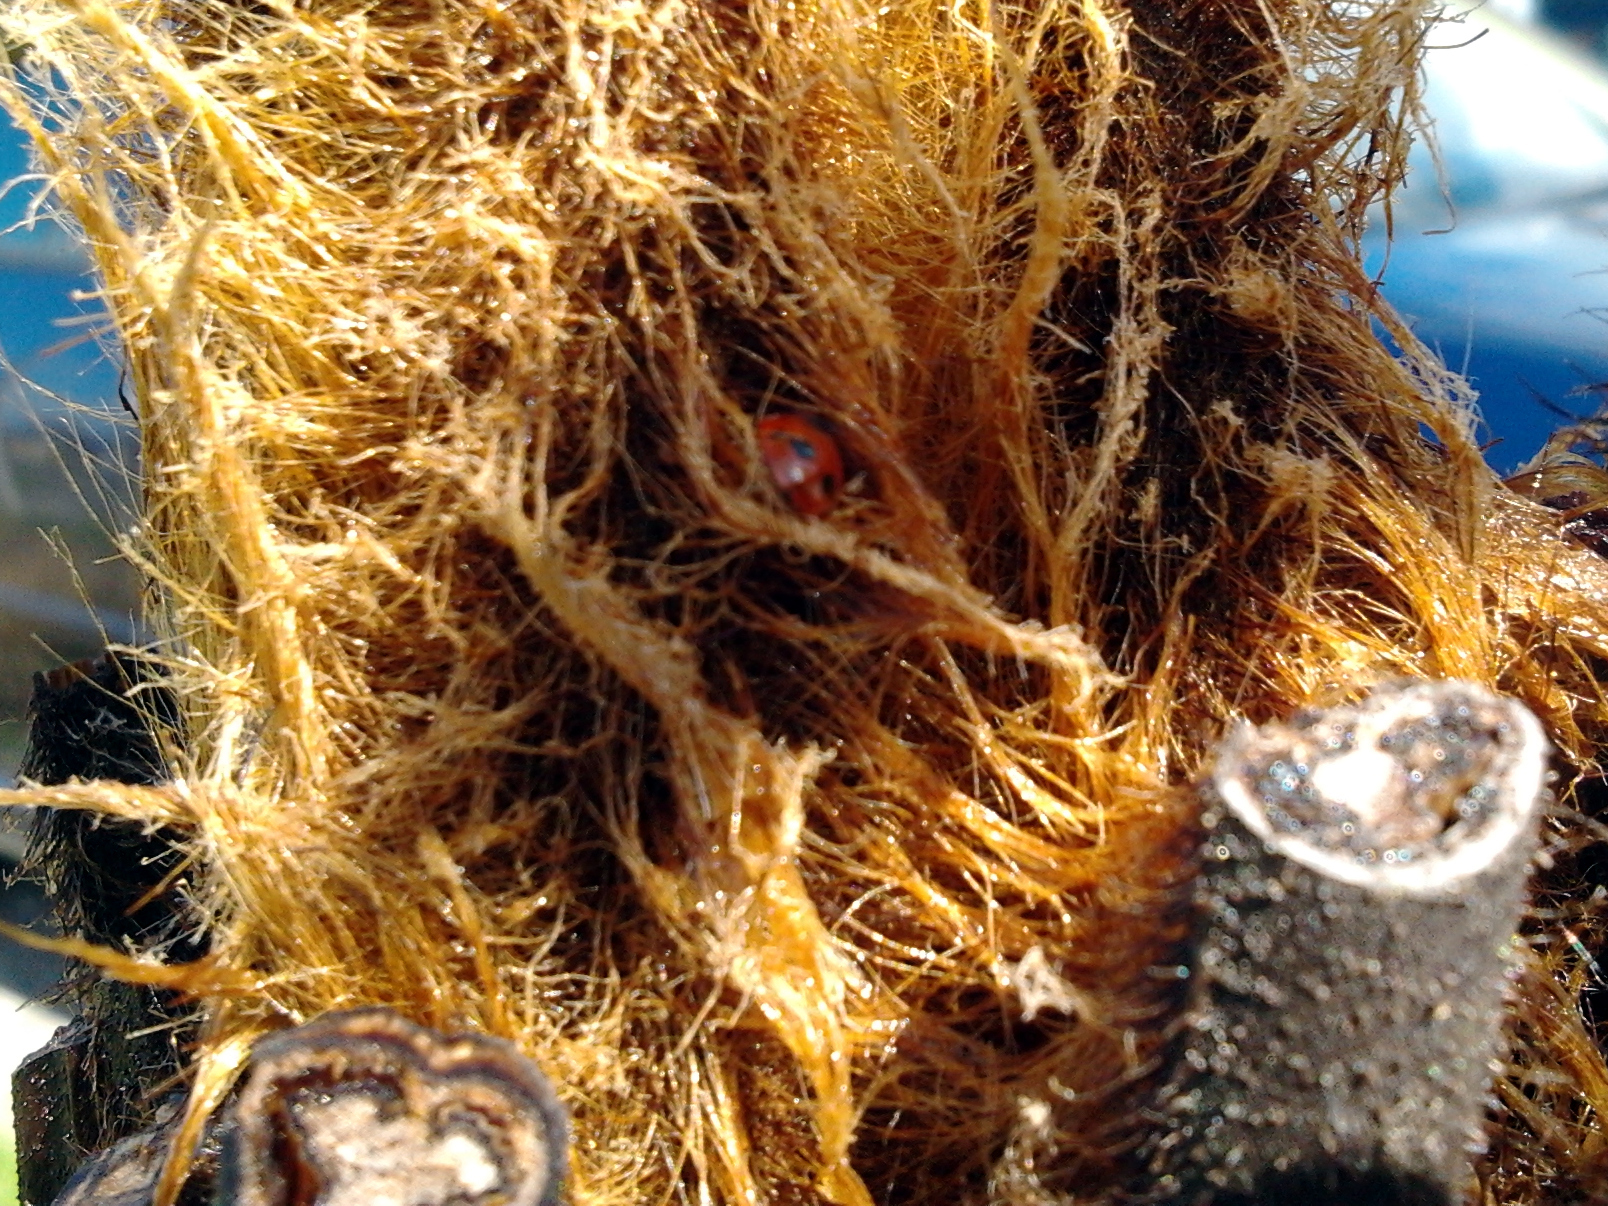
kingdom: Animalia
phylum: Arthropoda
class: Insecta
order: Coleoptera
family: Coccinellidae
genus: Coccinella
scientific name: Coccinella undecimpunctata
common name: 11-spot ladybird
